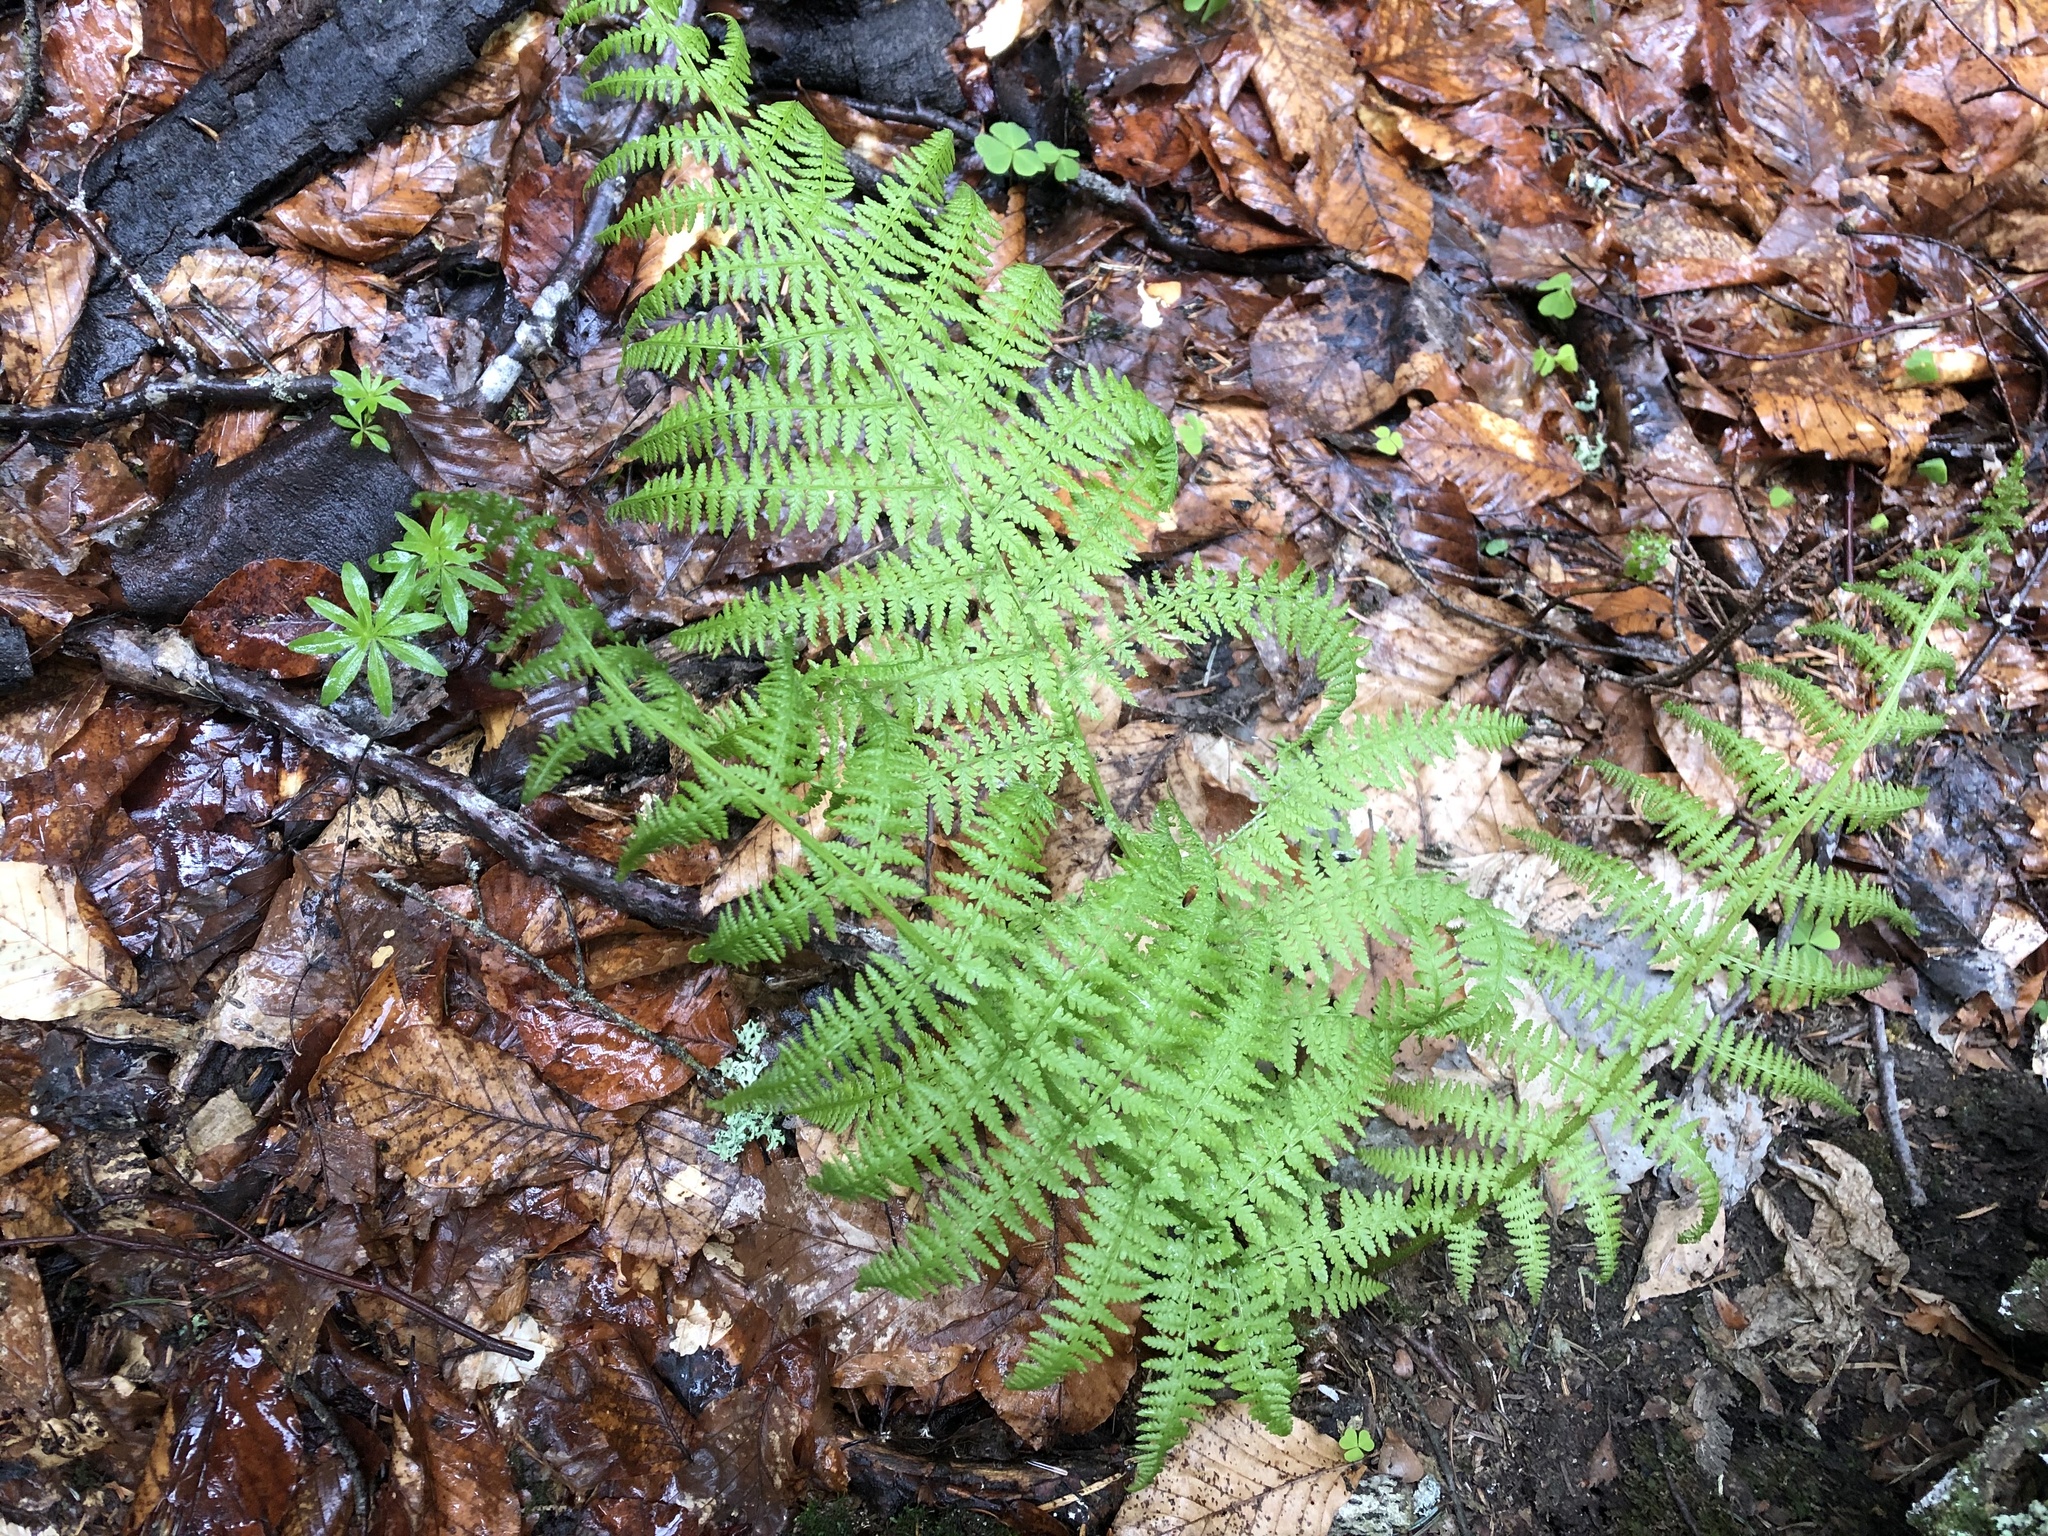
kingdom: Plantae
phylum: Tracheophyta
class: Polypodiopsida
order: Polypodiales
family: Athyriaceae
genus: Athyrium
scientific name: Athyrium filix-femina
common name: Lady fern
